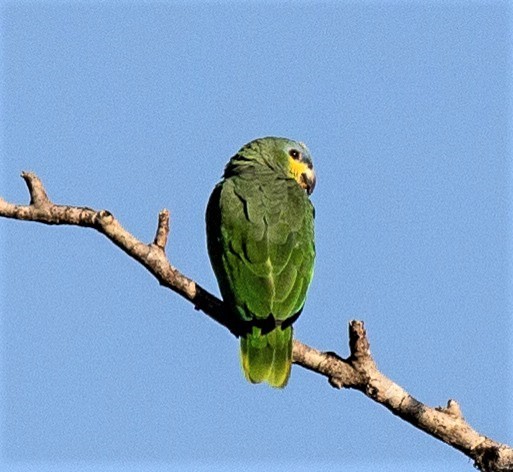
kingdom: Animalia
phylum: Chordata
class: Aves
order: Psittaciformes
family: Psittacidae
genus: Amazona
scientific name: Amazona amazonica
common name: Orange-winged amazon
